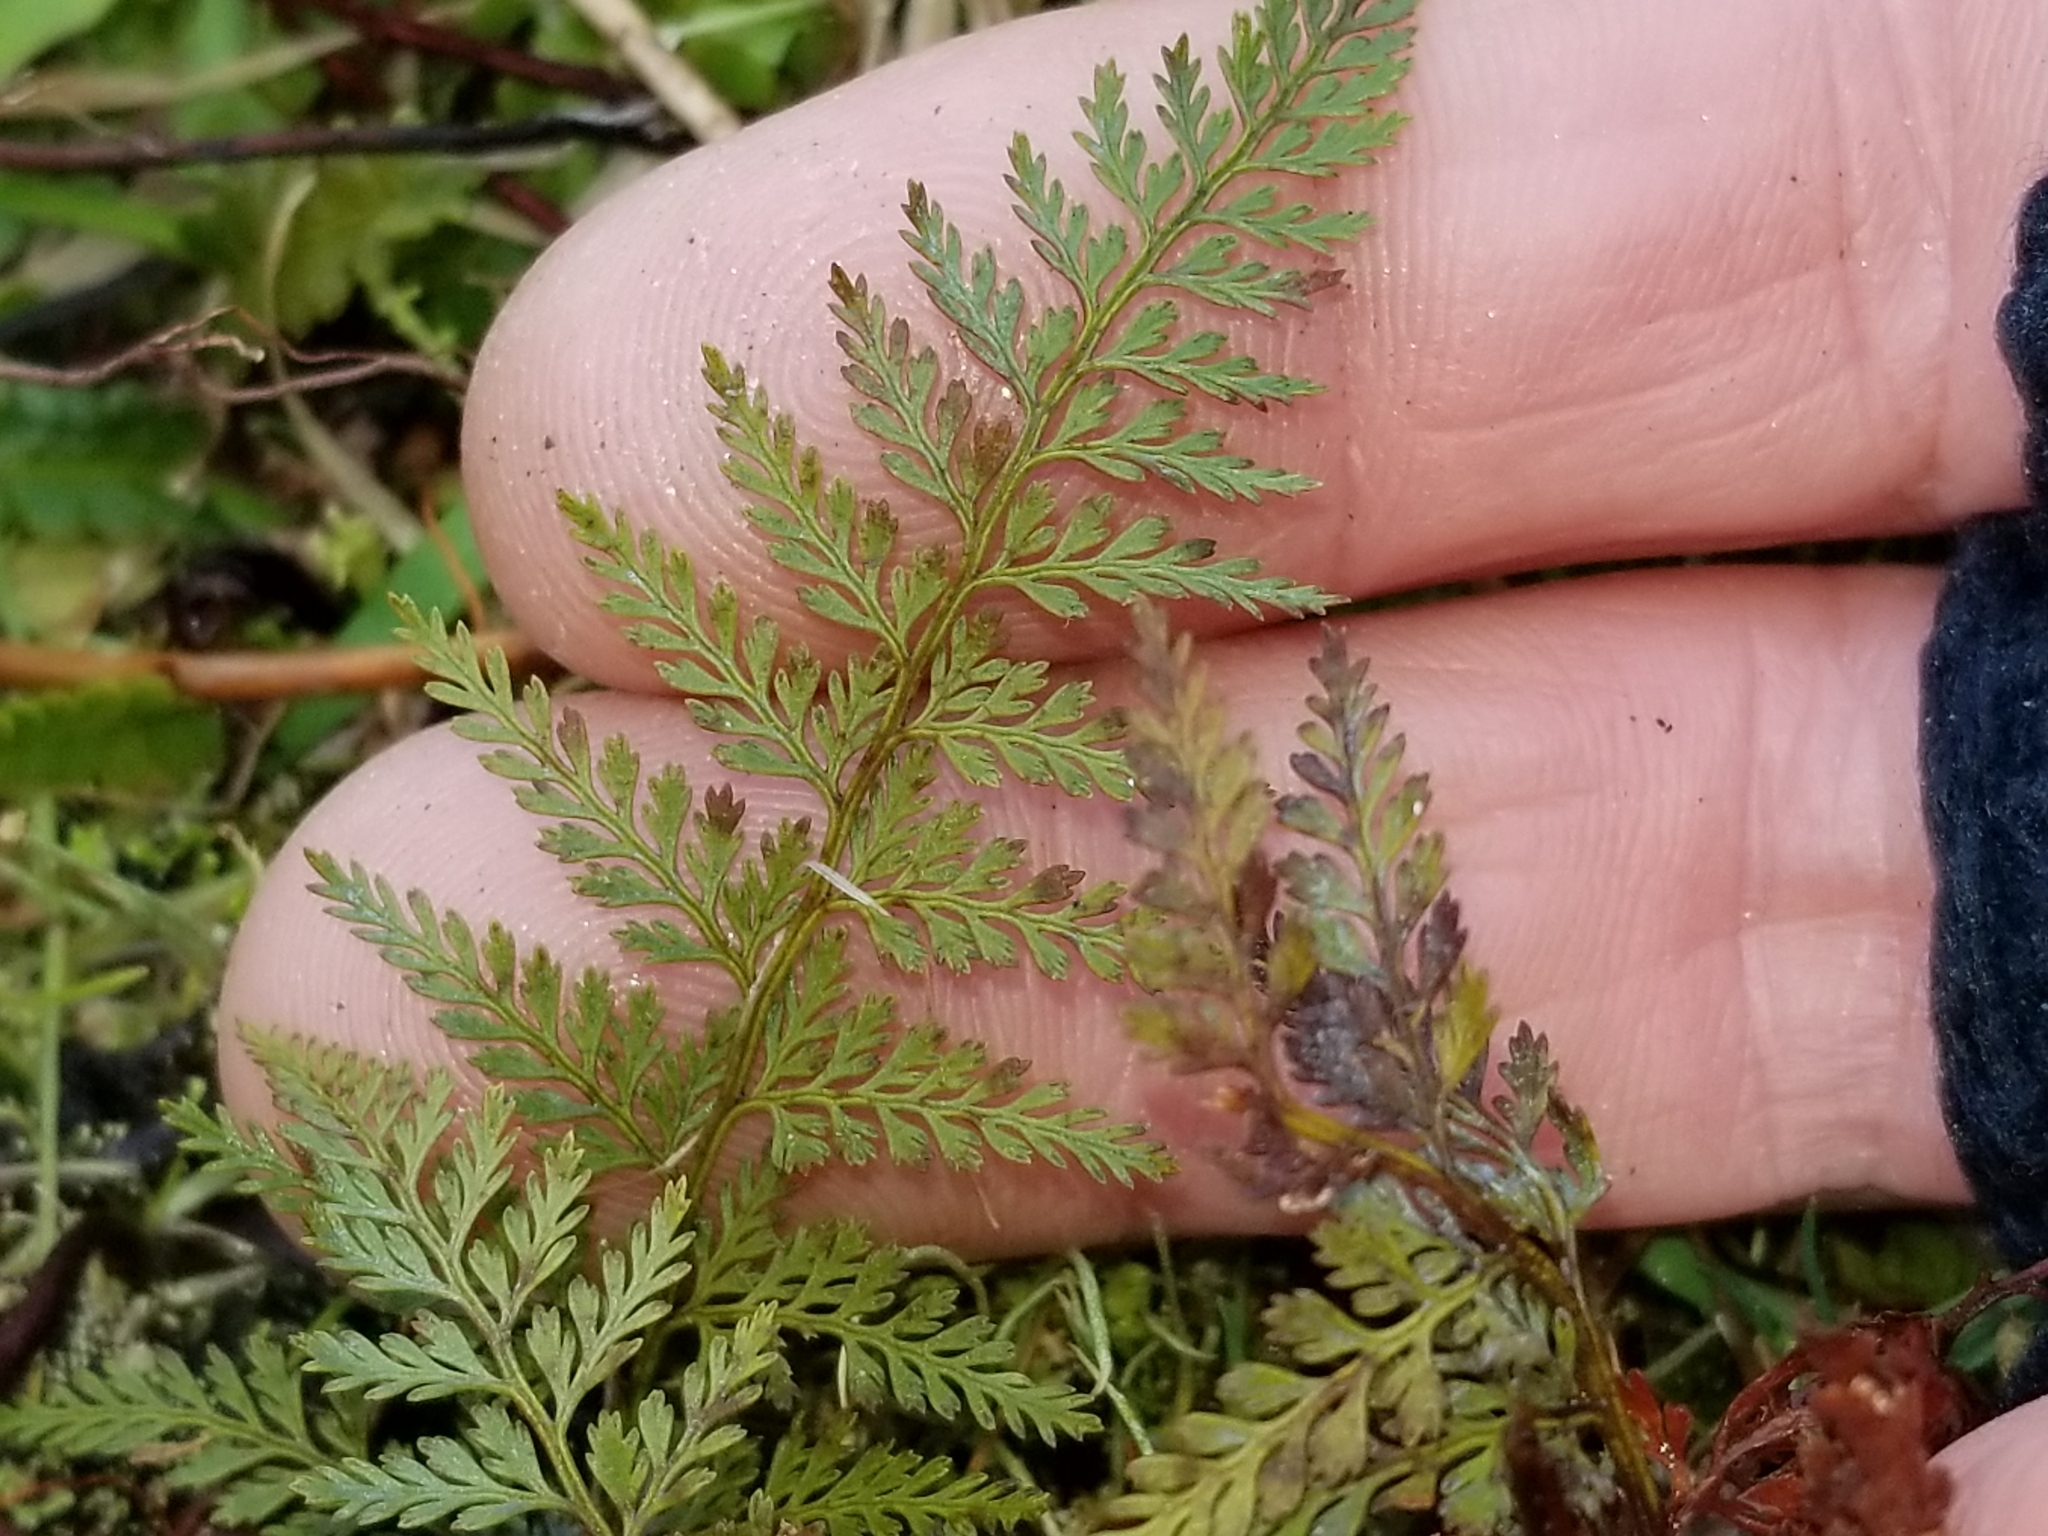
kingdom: Plantae
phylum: Tracheophyta
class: Polypodiopsida
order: Polypodiales
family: Dennstaedtiaceae
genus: Paesia
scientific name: Paesia scaberula
